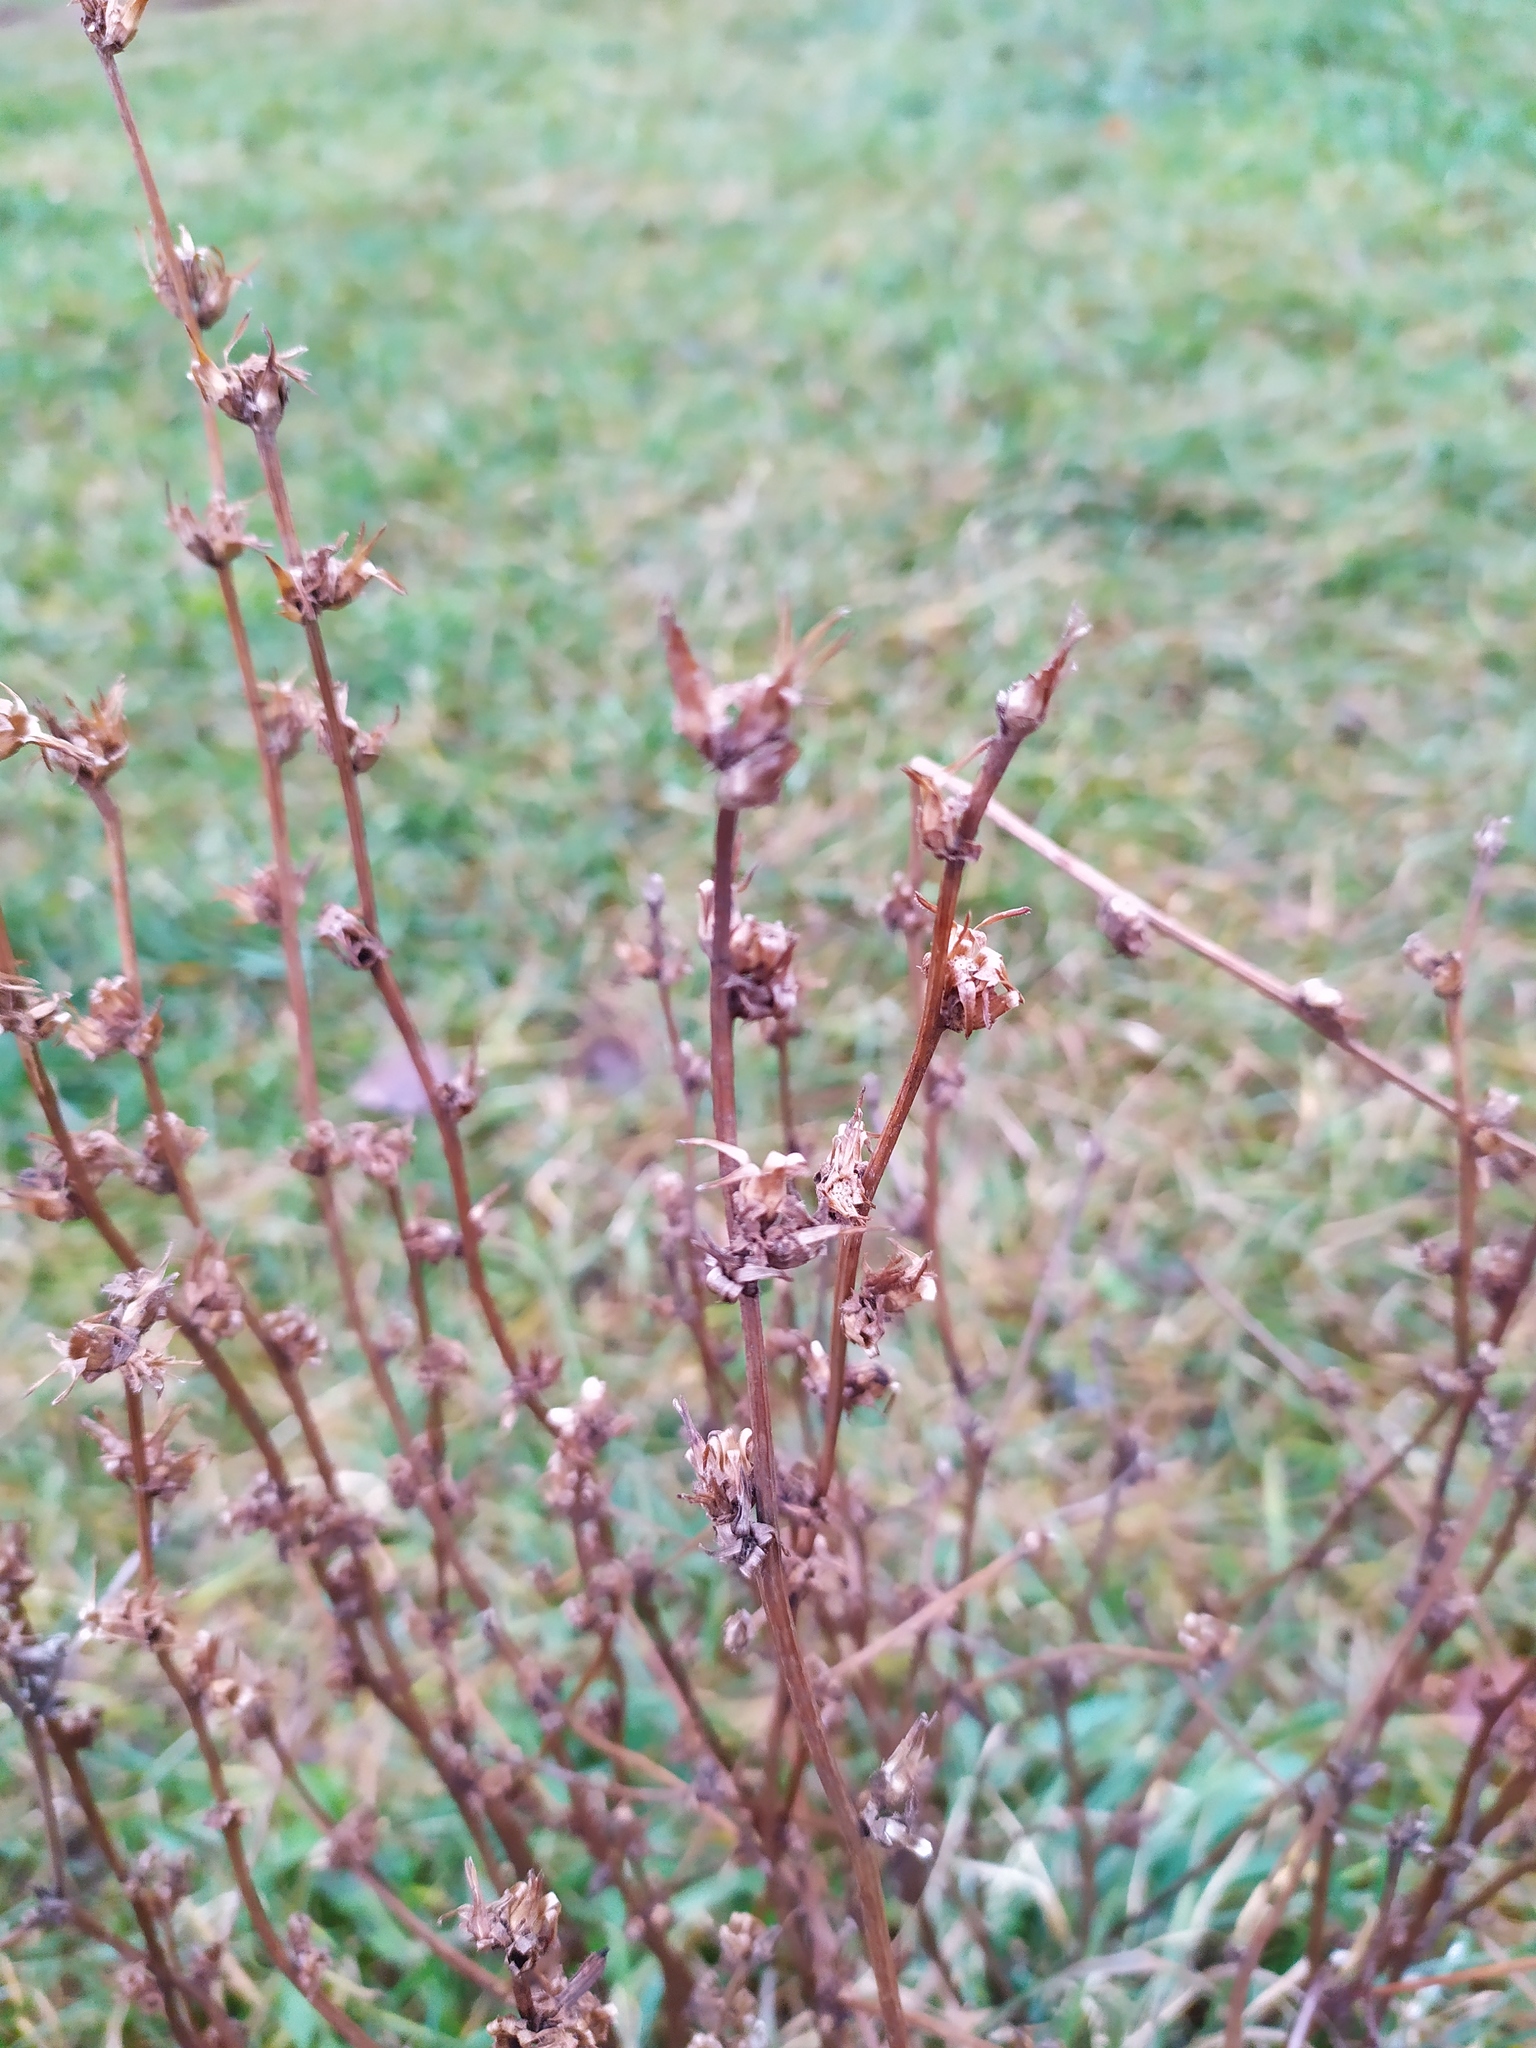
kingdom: Plantae
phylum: Tracheophyta
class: Magnoliopsida
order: Asterales
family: Asteraceae
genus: Cichorium
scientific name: Cichorium intybus
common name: Chicory
